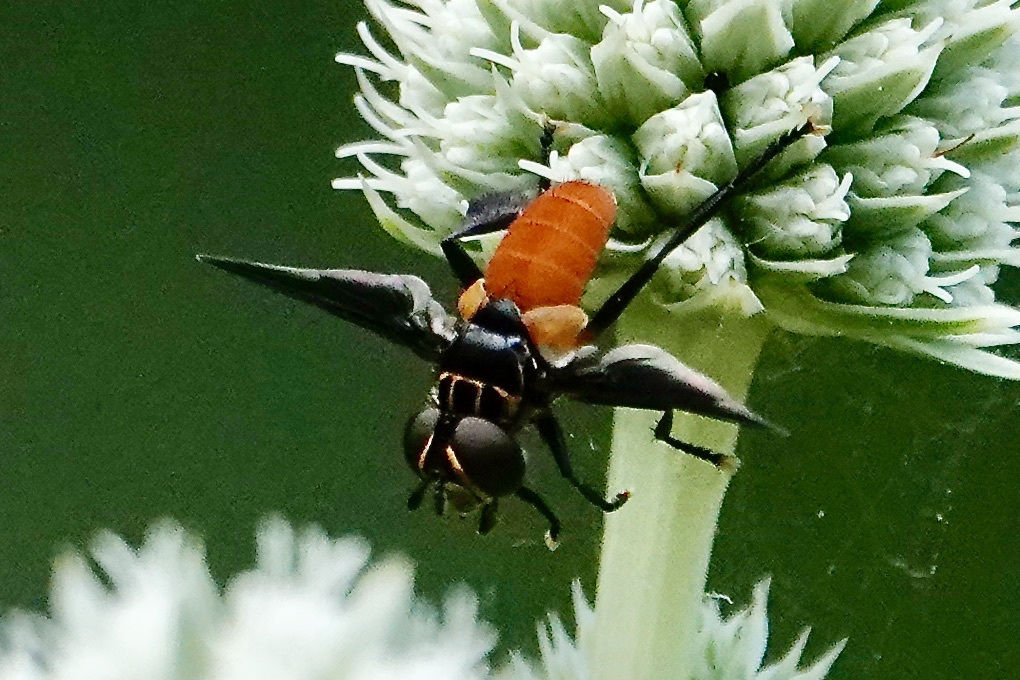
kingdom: Animalia
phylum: Arthropoda
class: Insecta
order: Diptera
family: Tachinidae
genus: Trichopoda
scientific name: Trichopoda pennipes
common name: Tachinid fly
